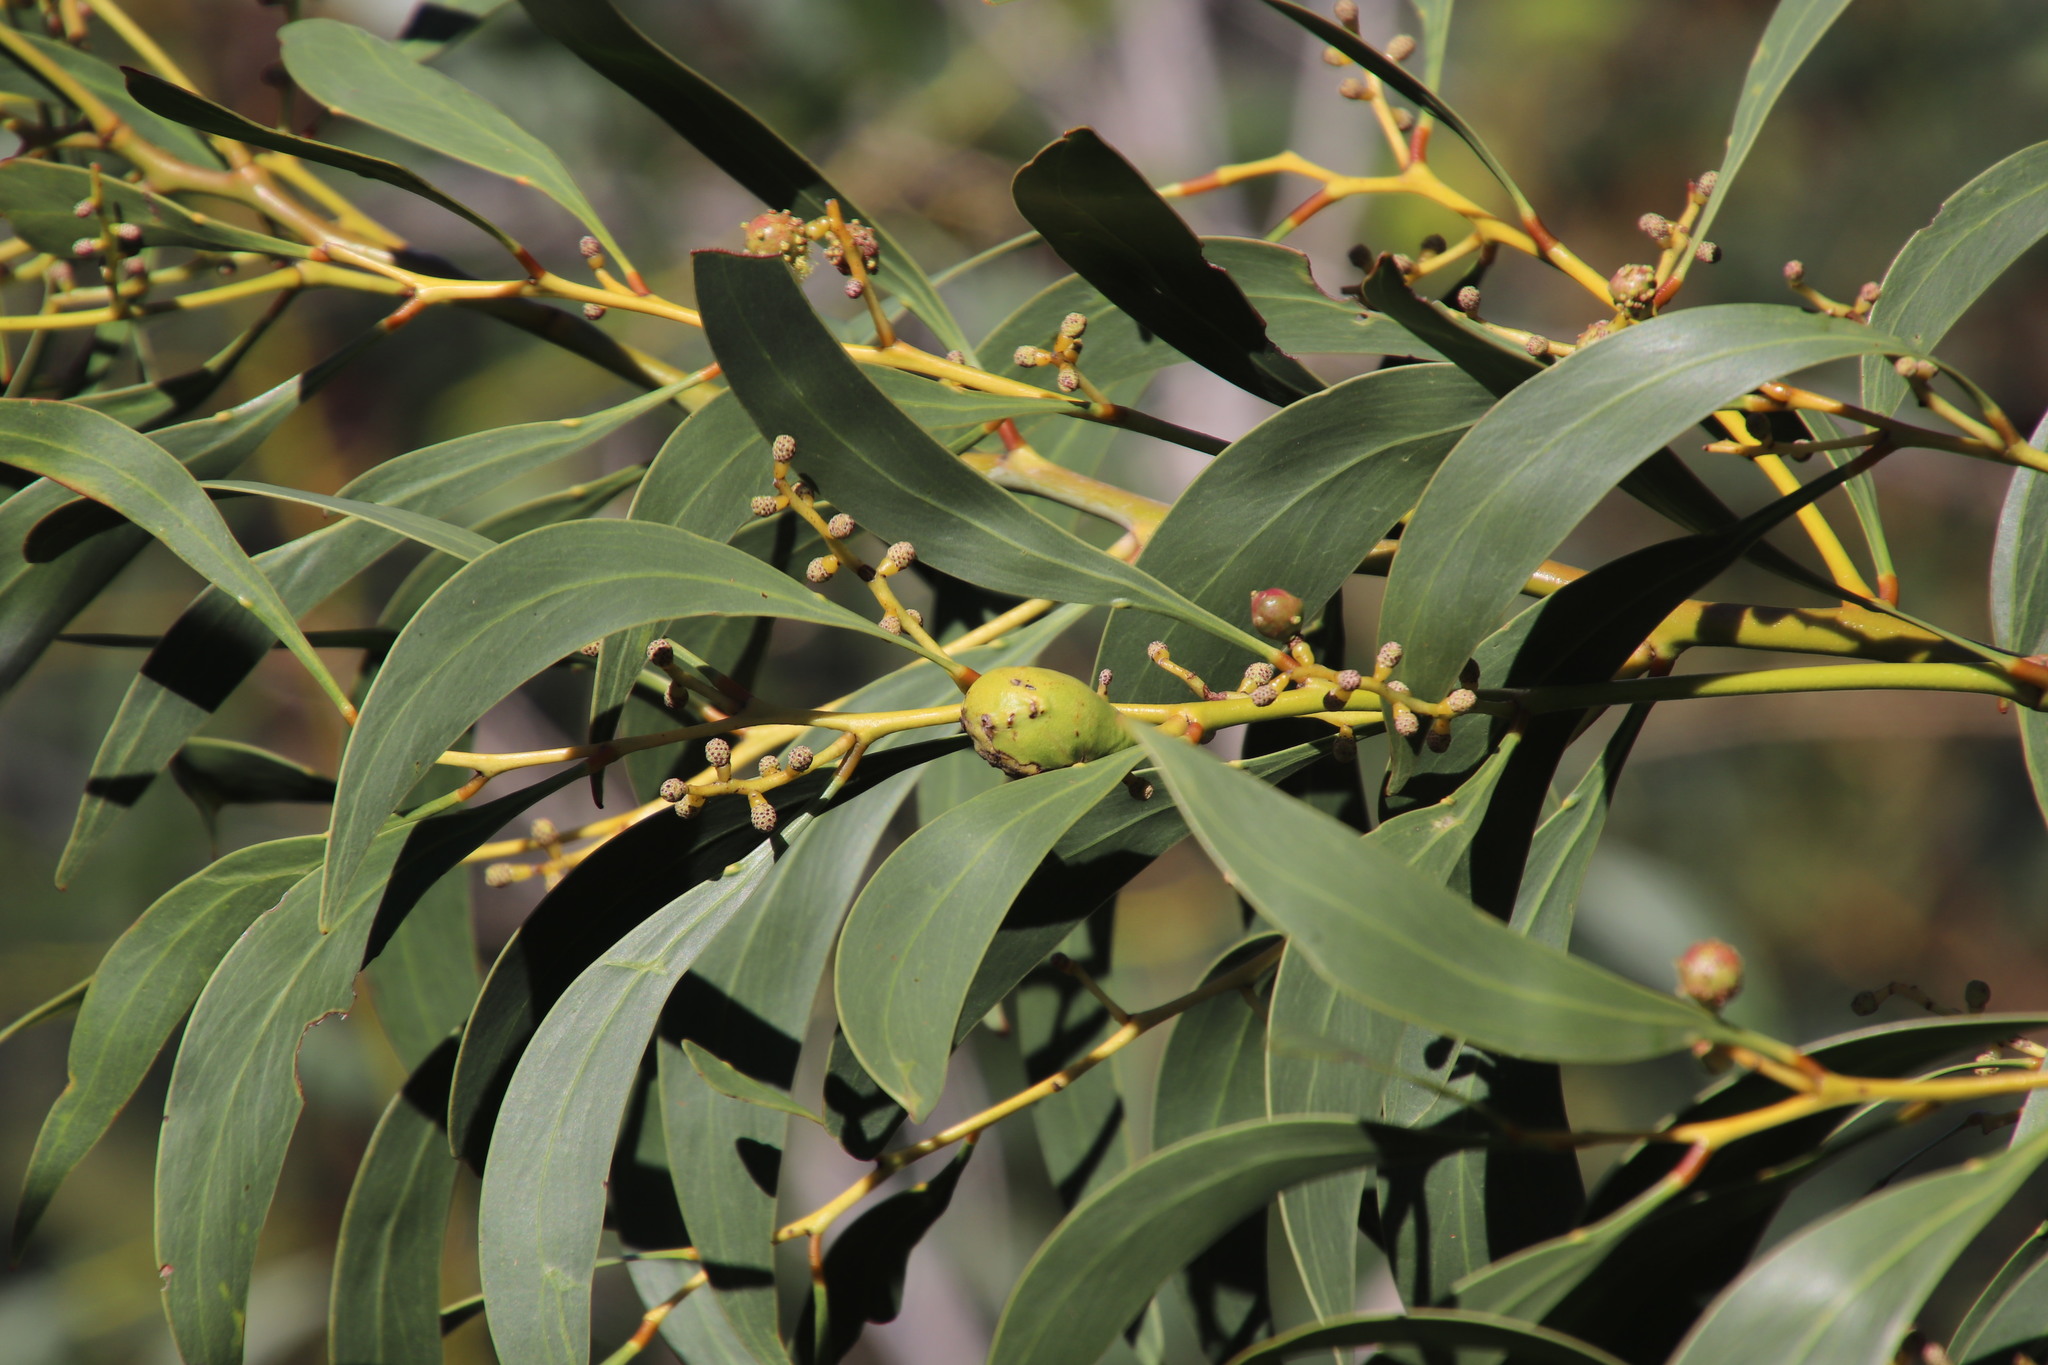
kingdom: Plantae
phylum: Tracheophyta
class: Magnoliopsida
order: Fabales
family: Fabaceae
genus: Acacia
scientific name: Acacia pycnantha
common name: Golden wattle
